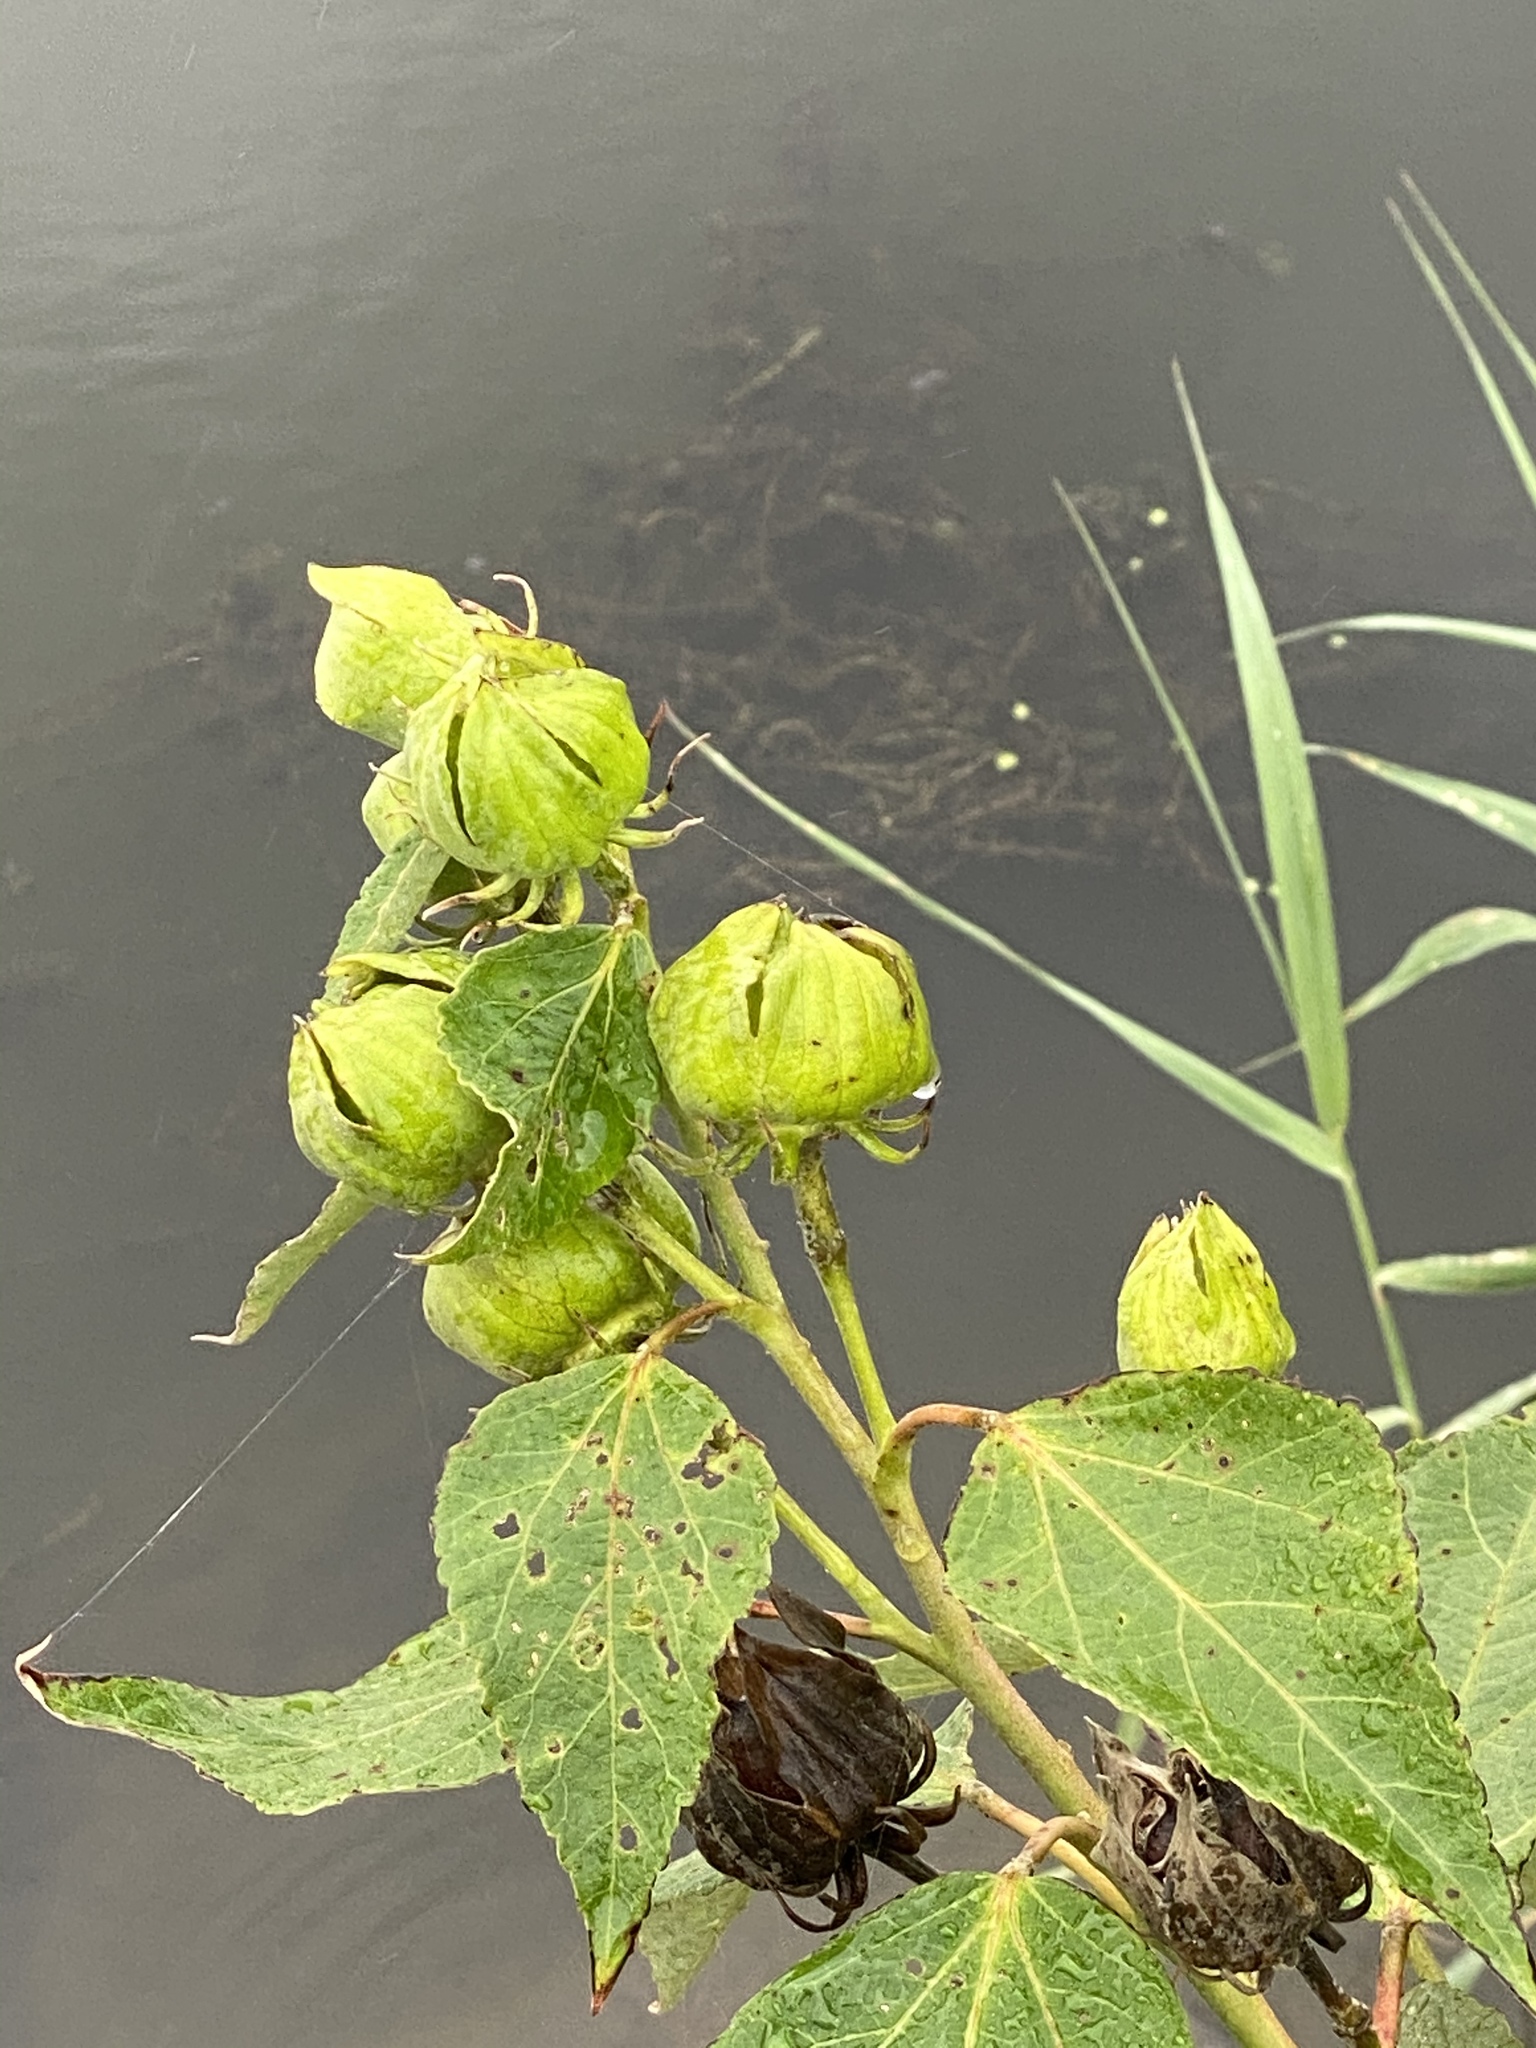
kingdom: Plantae
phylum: Tracheophyta
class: Magnoliopsida
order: Malvales
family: Malvaceae
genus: Hibiscus
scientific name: Hibiscus moscheutos
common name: Common rose-mallow
